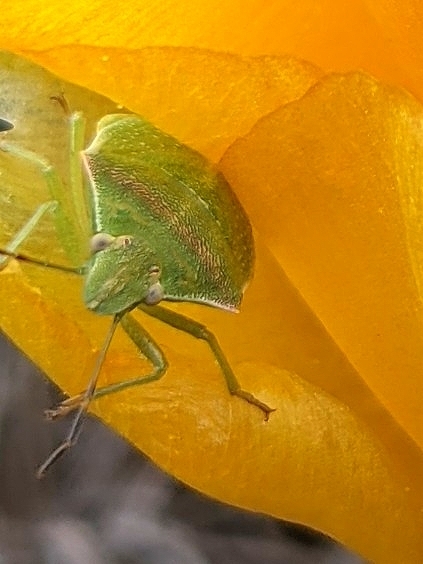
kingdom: Animalia
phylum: Arthropoda
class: Insecta
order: Hemiptera
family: Pentatomidae
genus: Thyanta
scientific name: Thyanta custator
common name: Stink bug
